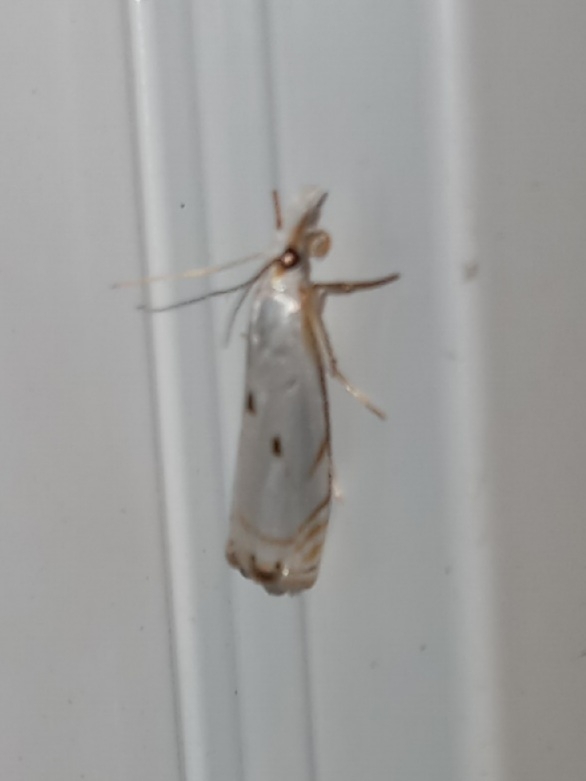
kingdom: Animalia
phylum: Arthropoda
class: Insecta
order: Lepidoptera
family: Crambidae
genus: Microcrambus
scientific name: Microcrambus biguttellus
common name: Gold-stripe grass-veneer moth
